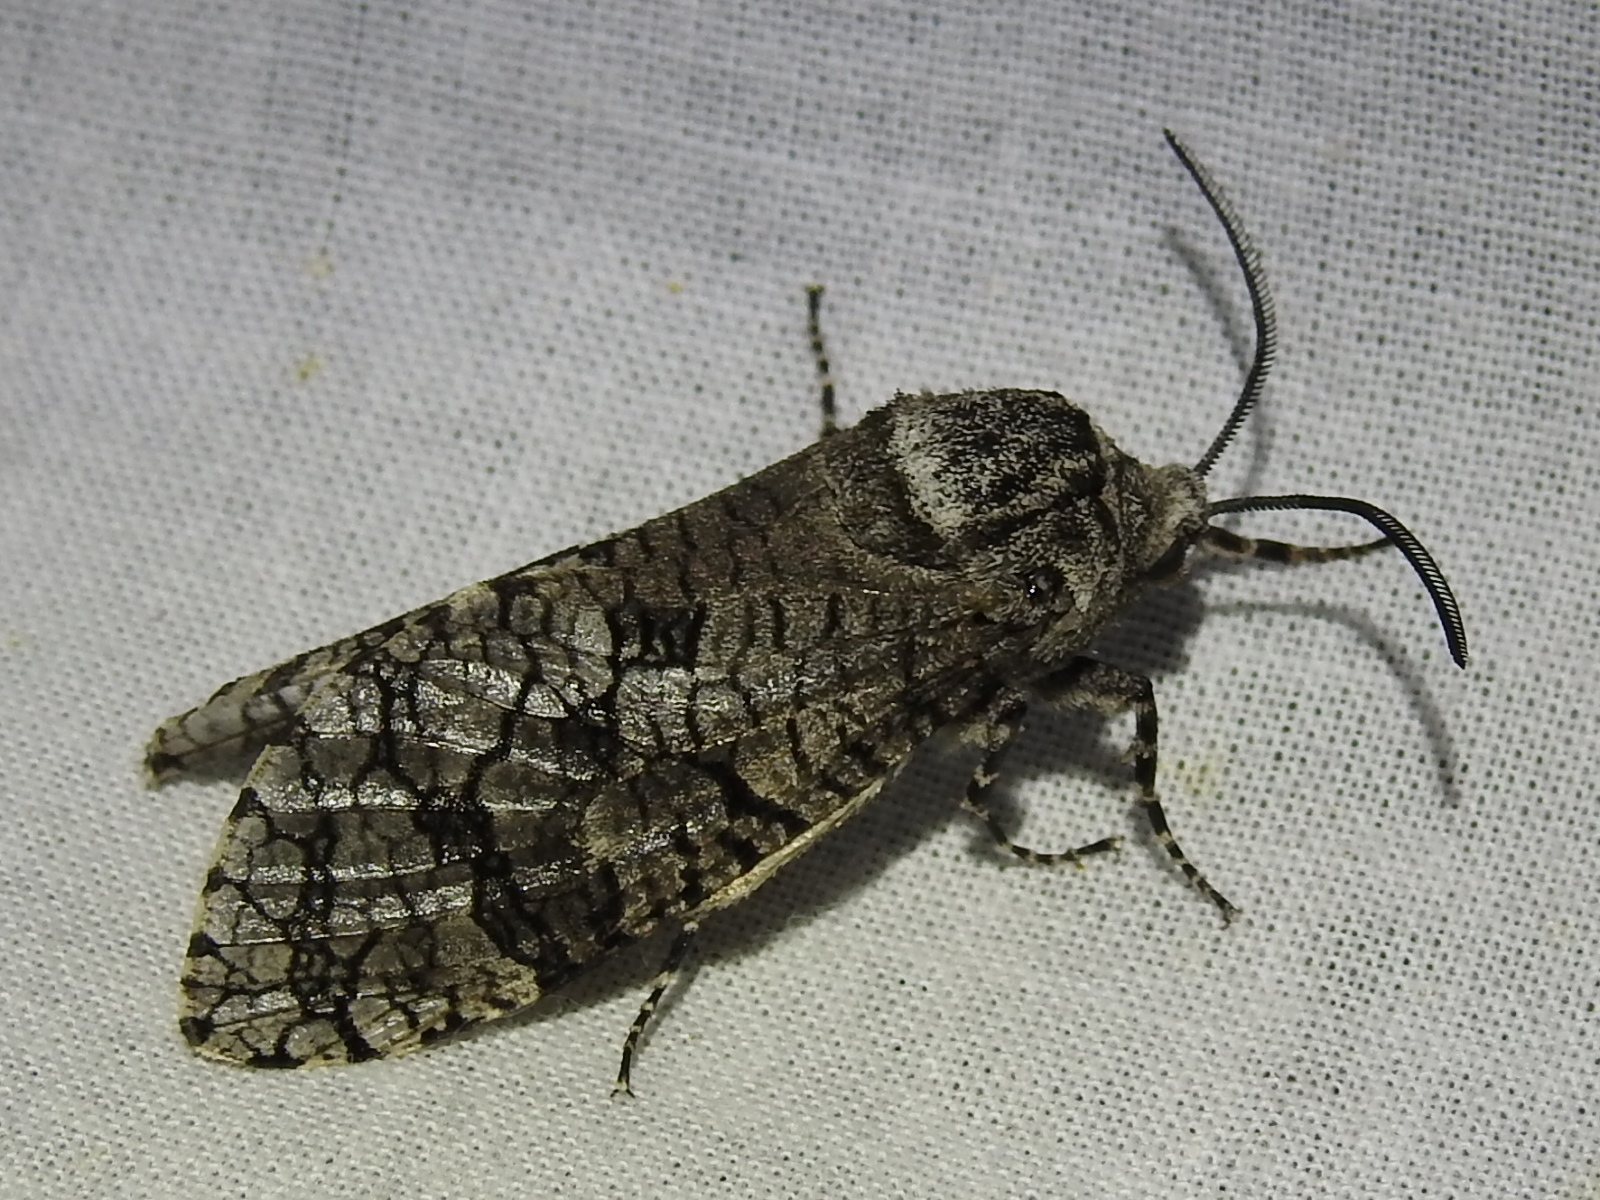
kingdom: Animalia
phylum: Arthropoda
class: Insecta
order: Lepidoptera
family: Cossidae
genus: Prionoxystus
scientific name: Prionoxystus robiniae
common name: Carpenterworm
